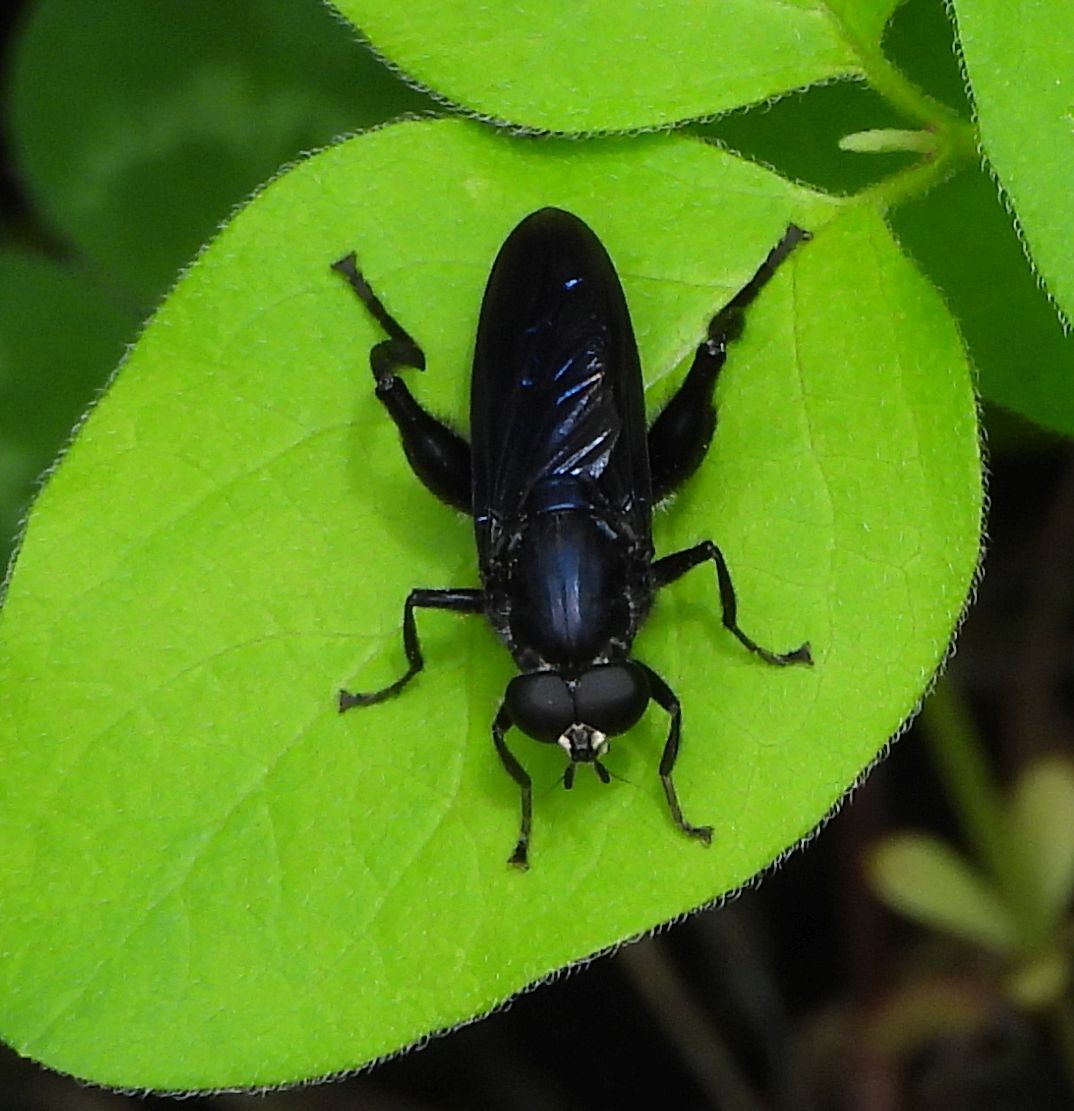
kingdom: Animalia
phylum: Arthropoda
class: Insecta
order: Diptera
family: Syrphidae
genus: Chalcosyrphus
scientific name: Chalcosyrphus chalybeus
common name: Violet leafwalker
